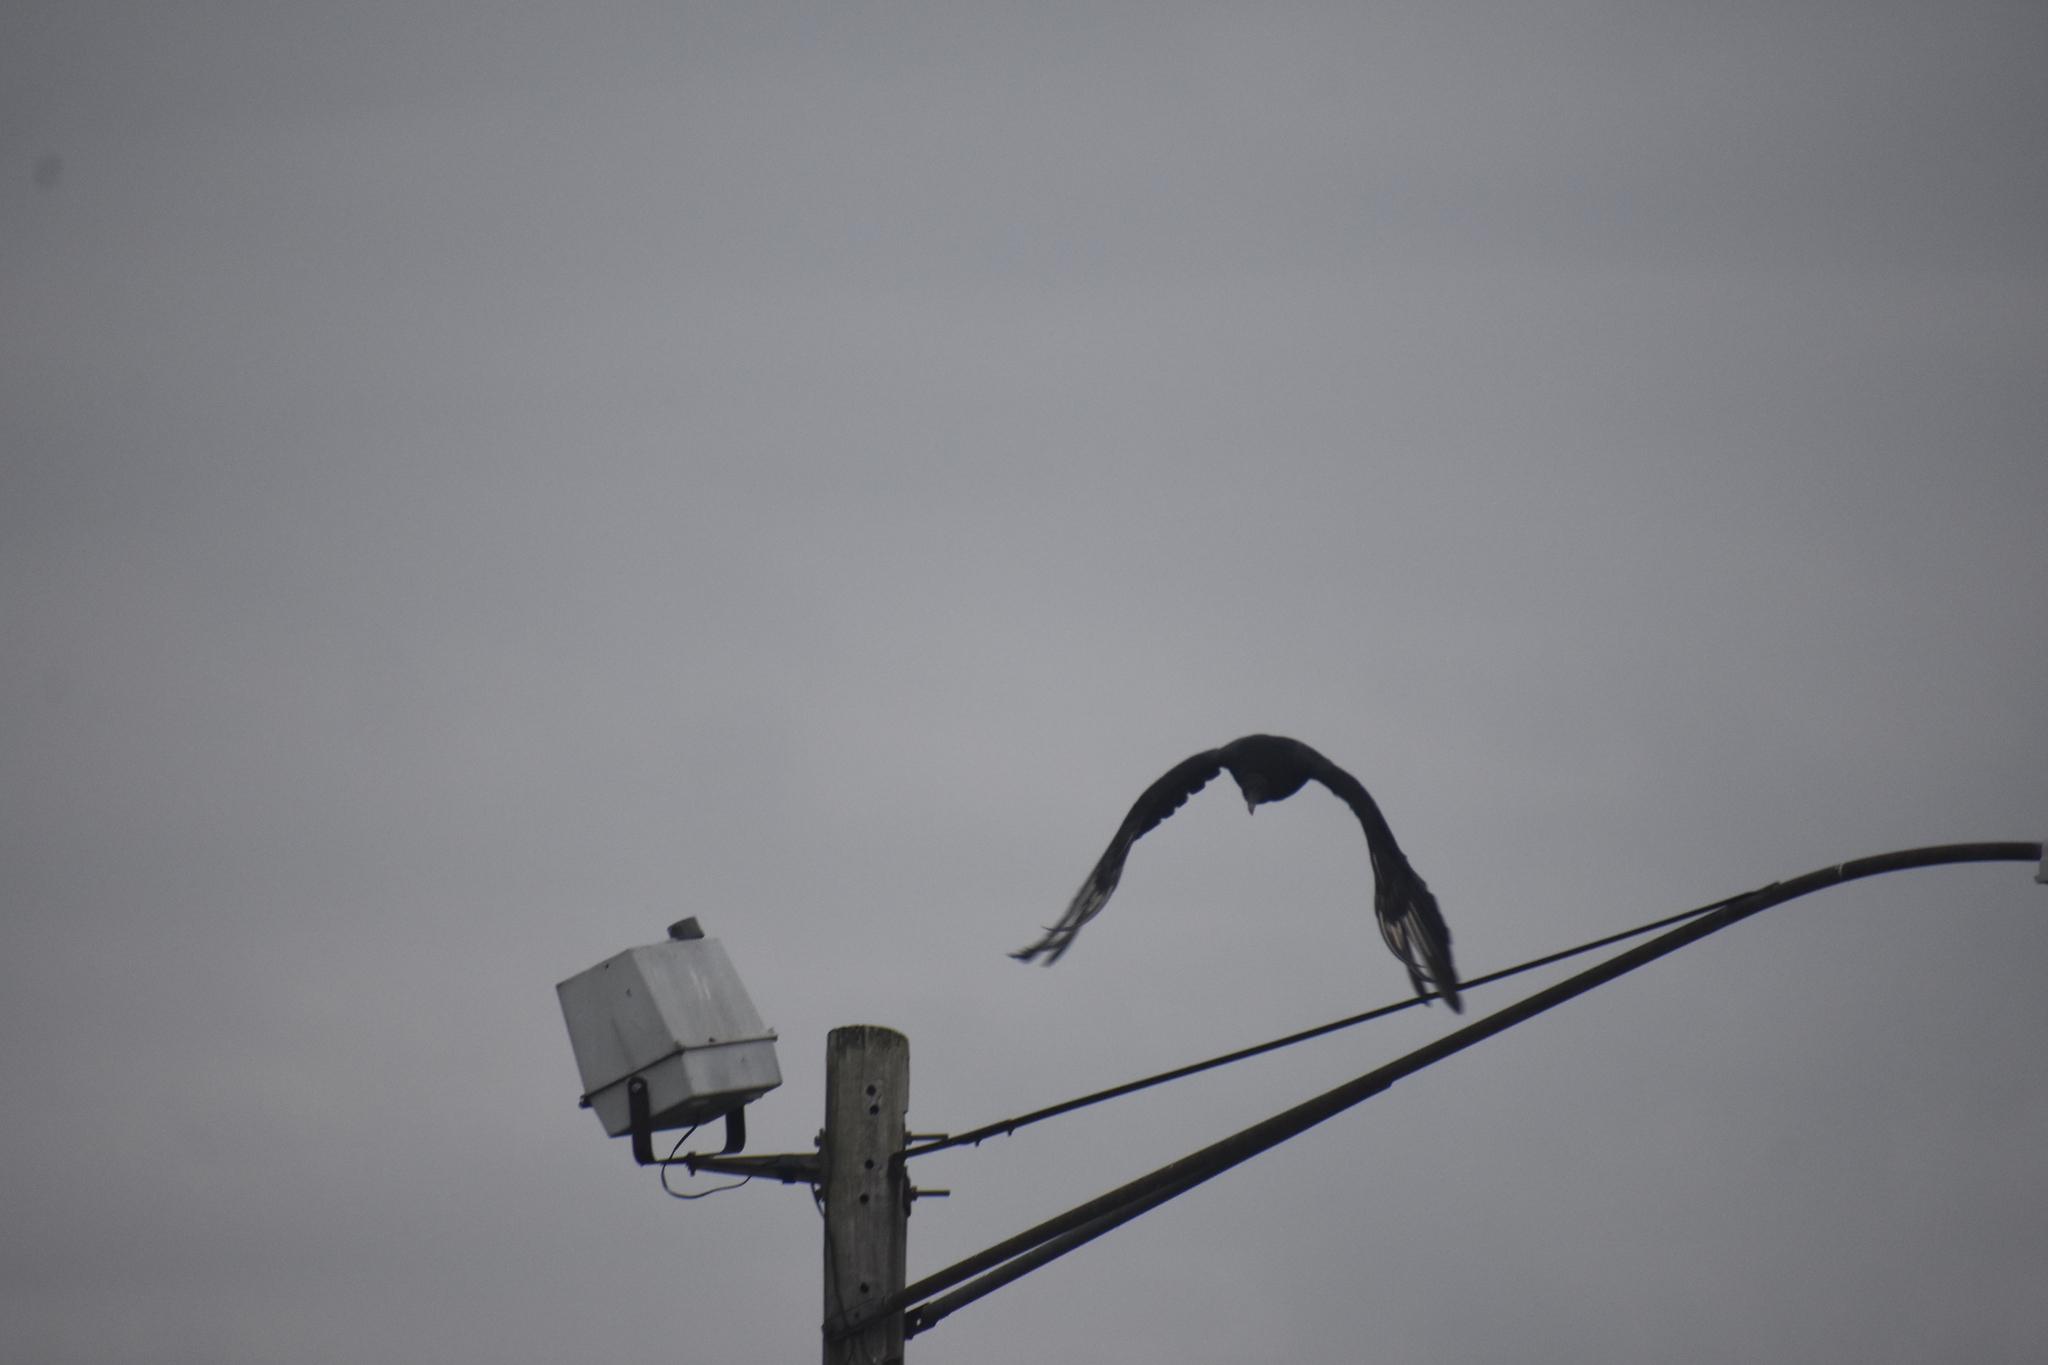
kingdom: Animalia
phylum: Chordata
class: Aves
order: Accipitriformes
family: Cathartidae
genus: Cathartes
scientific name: Cathartes aura
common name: Turkey vulture
